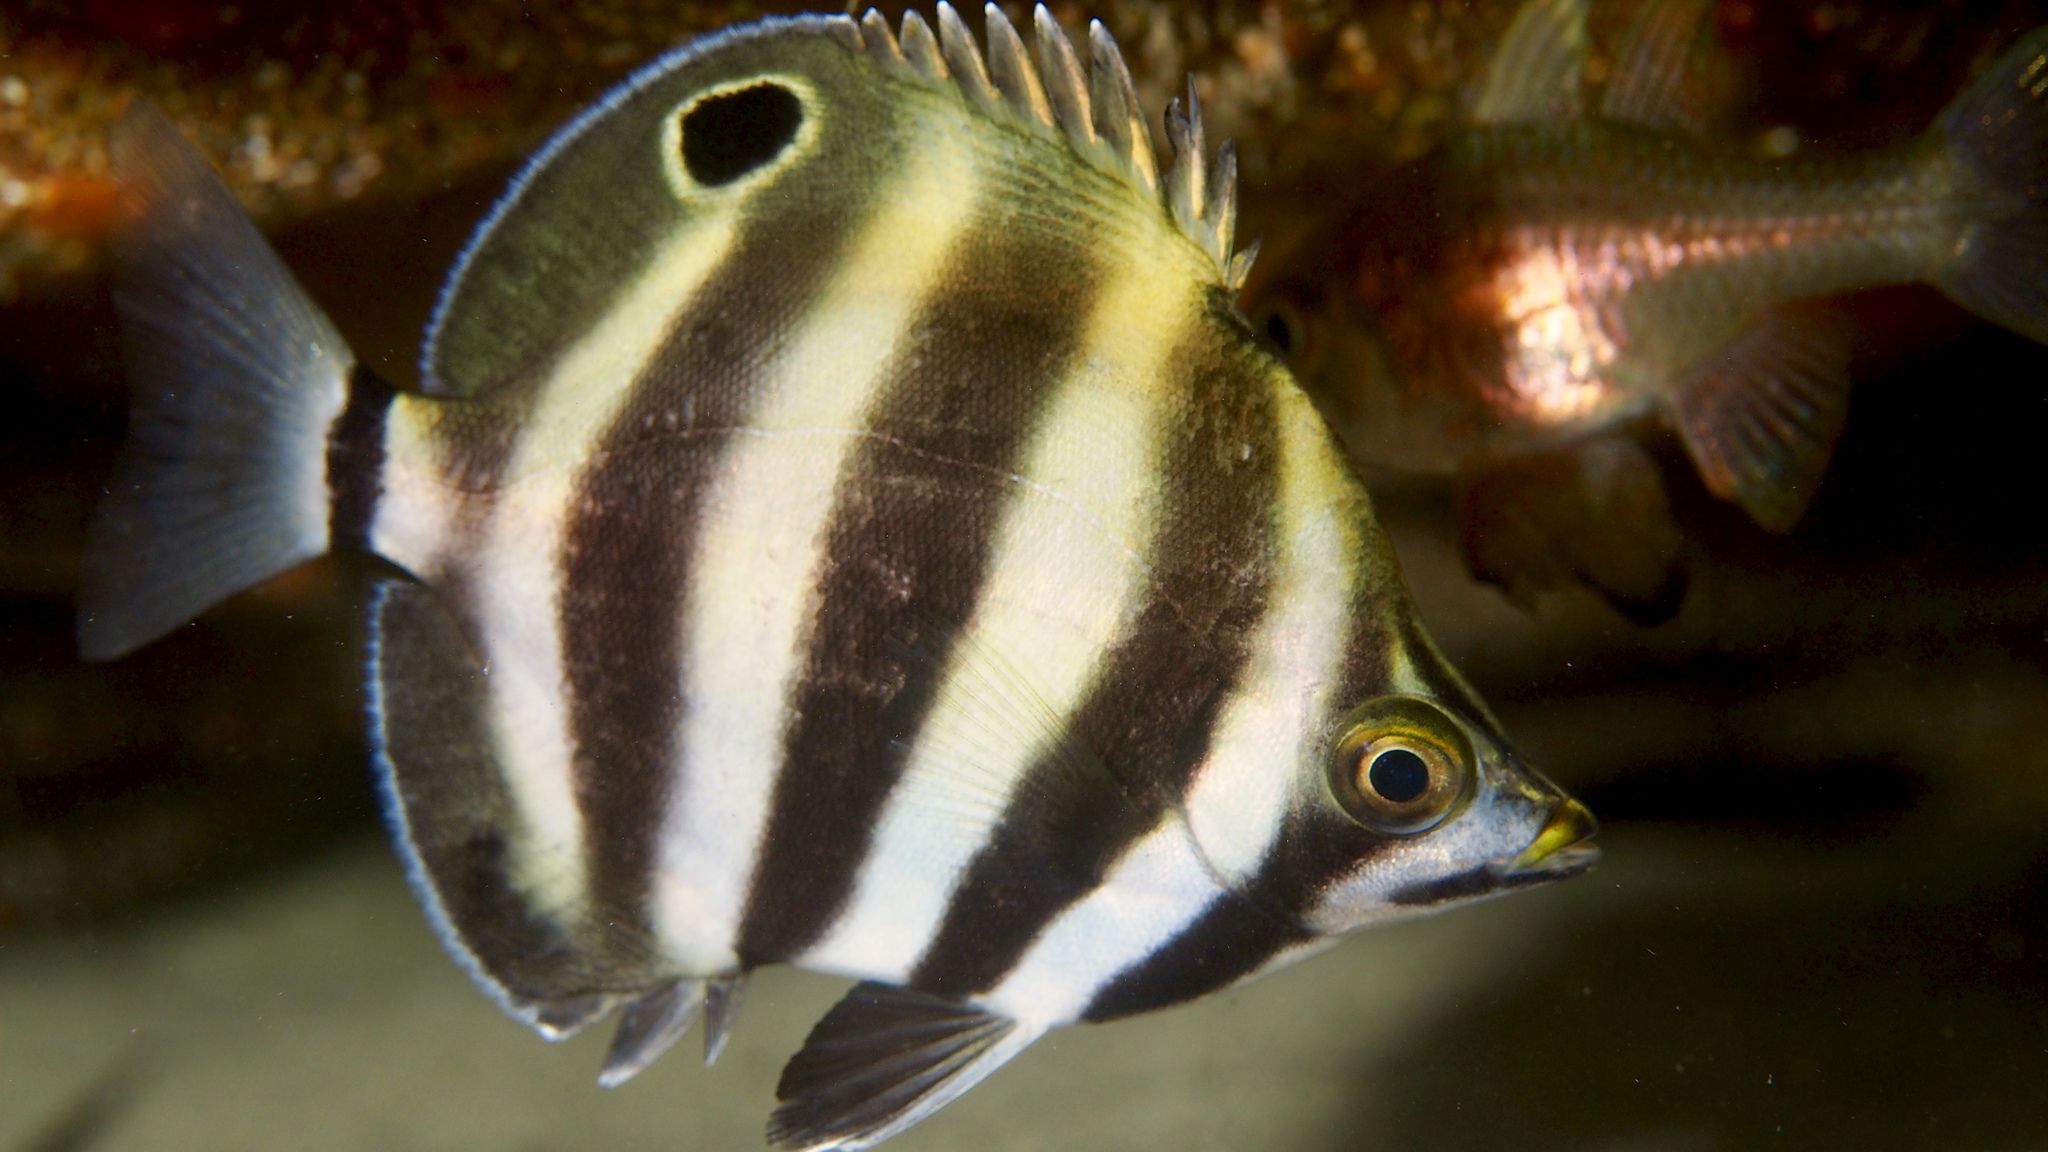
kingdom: Animalia
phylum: Chordata
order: Perciformes
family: Kyphosidae
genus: Tilodon
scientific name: Tilodon sexfasciatus
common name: Moonlighter
